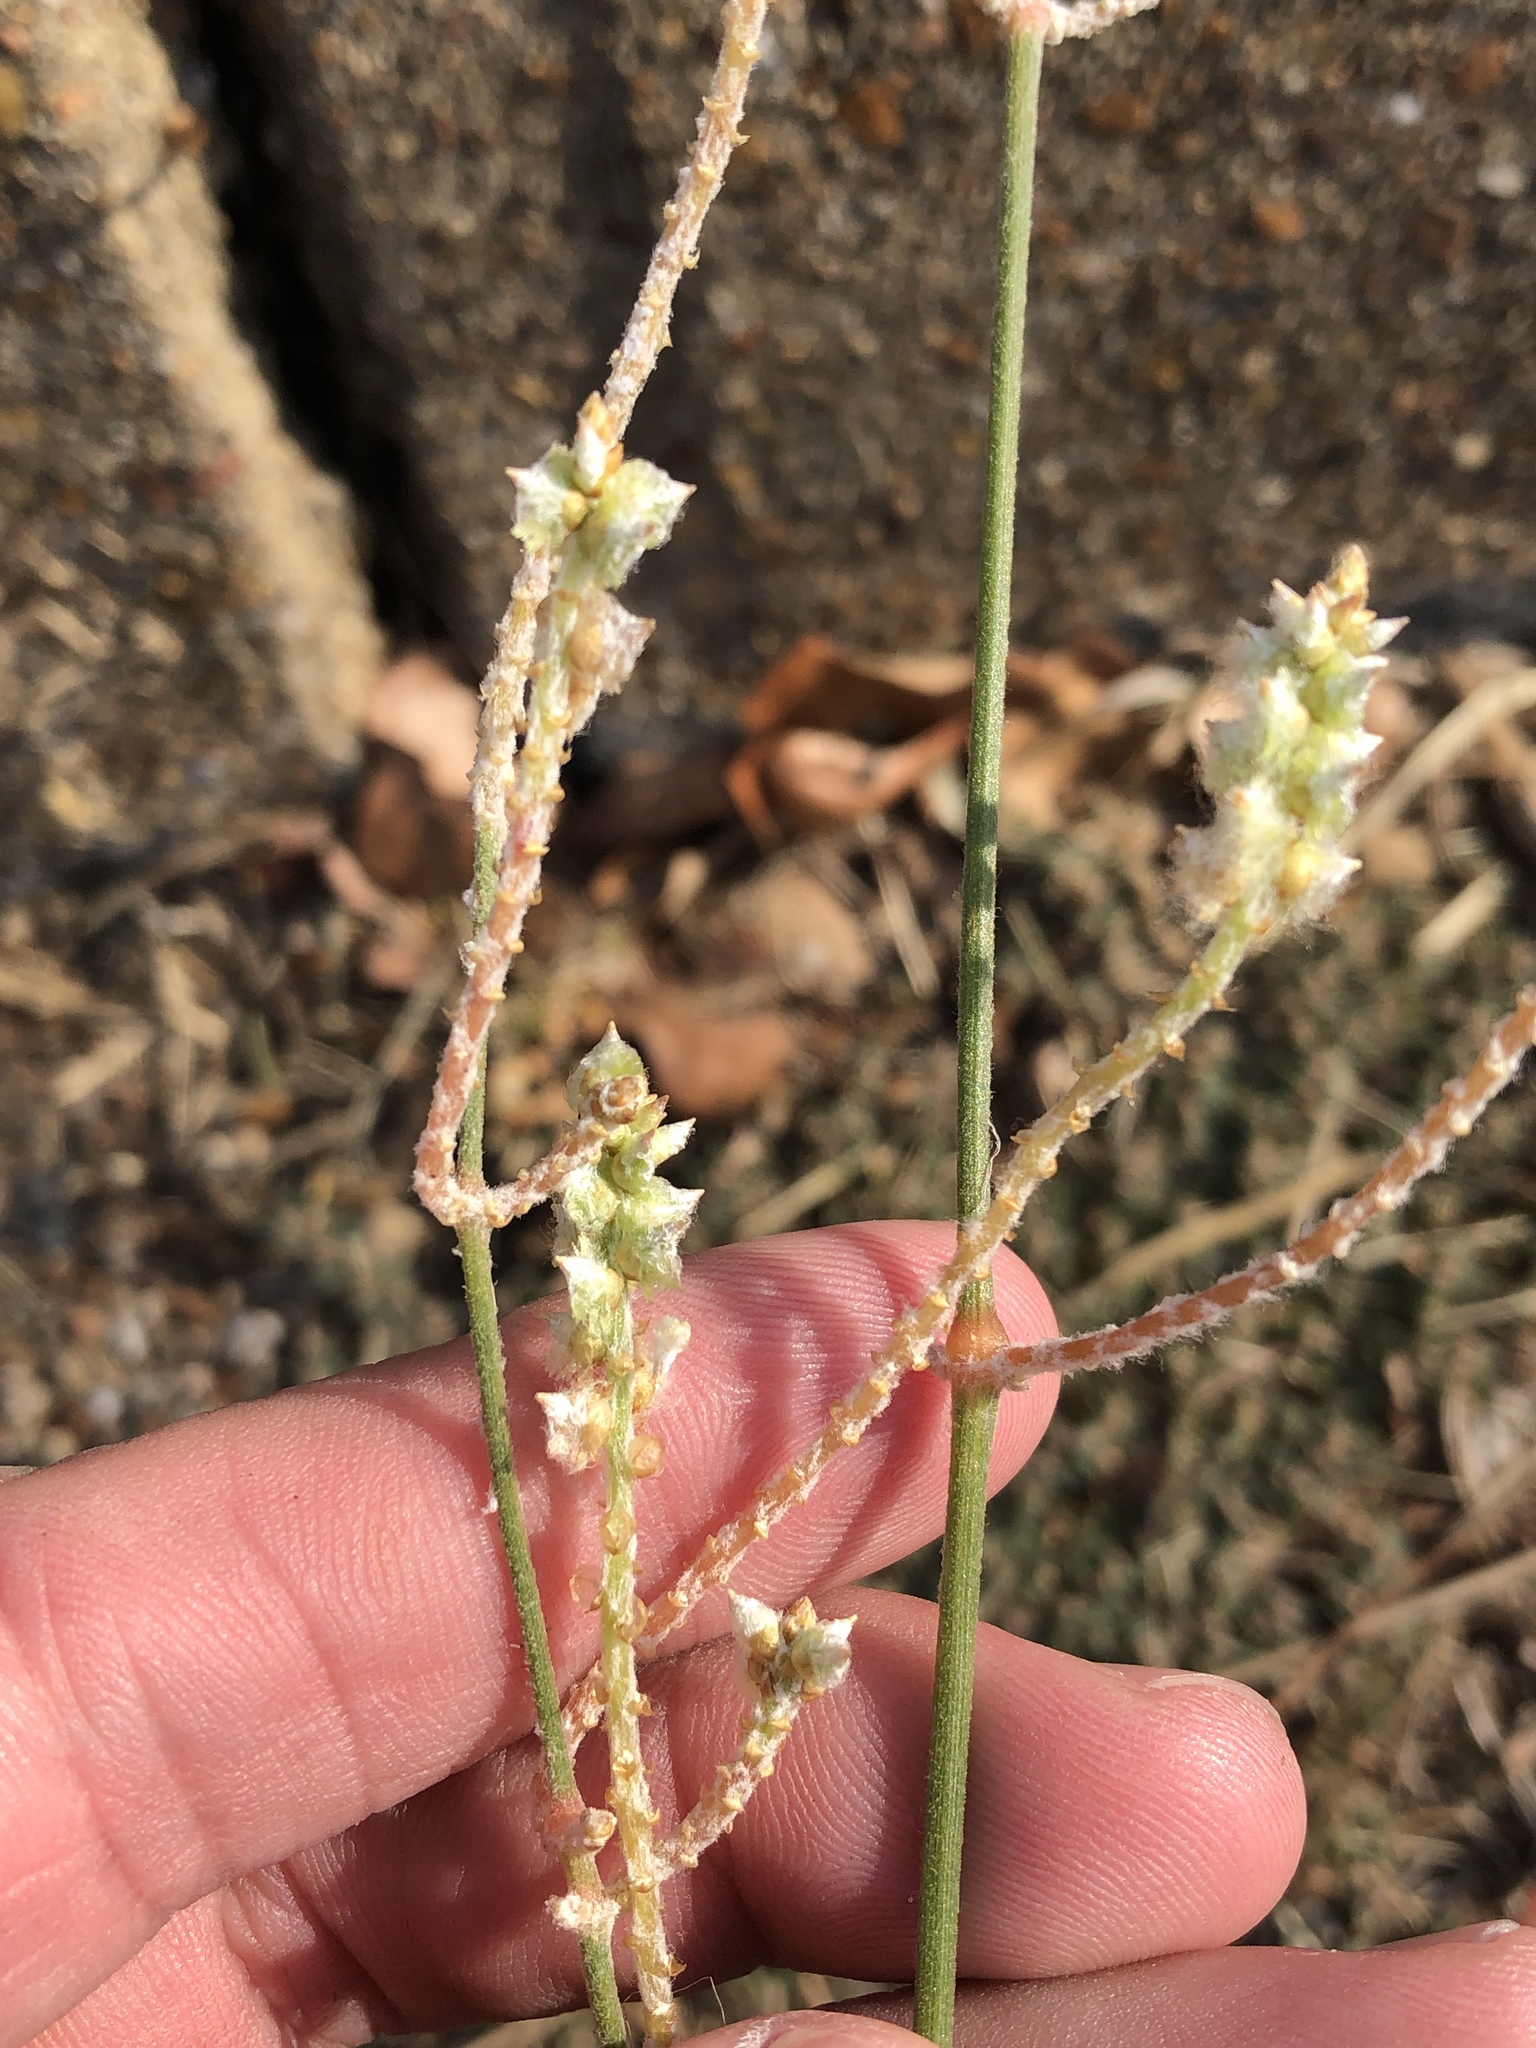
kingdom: Plantae
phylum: Tracheophyta
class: Magnoliopsida
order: Caryophyllales
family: Amaranthaceae
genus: Froelichia
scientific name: Froelichia floridana
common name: Florida snake-cotton
